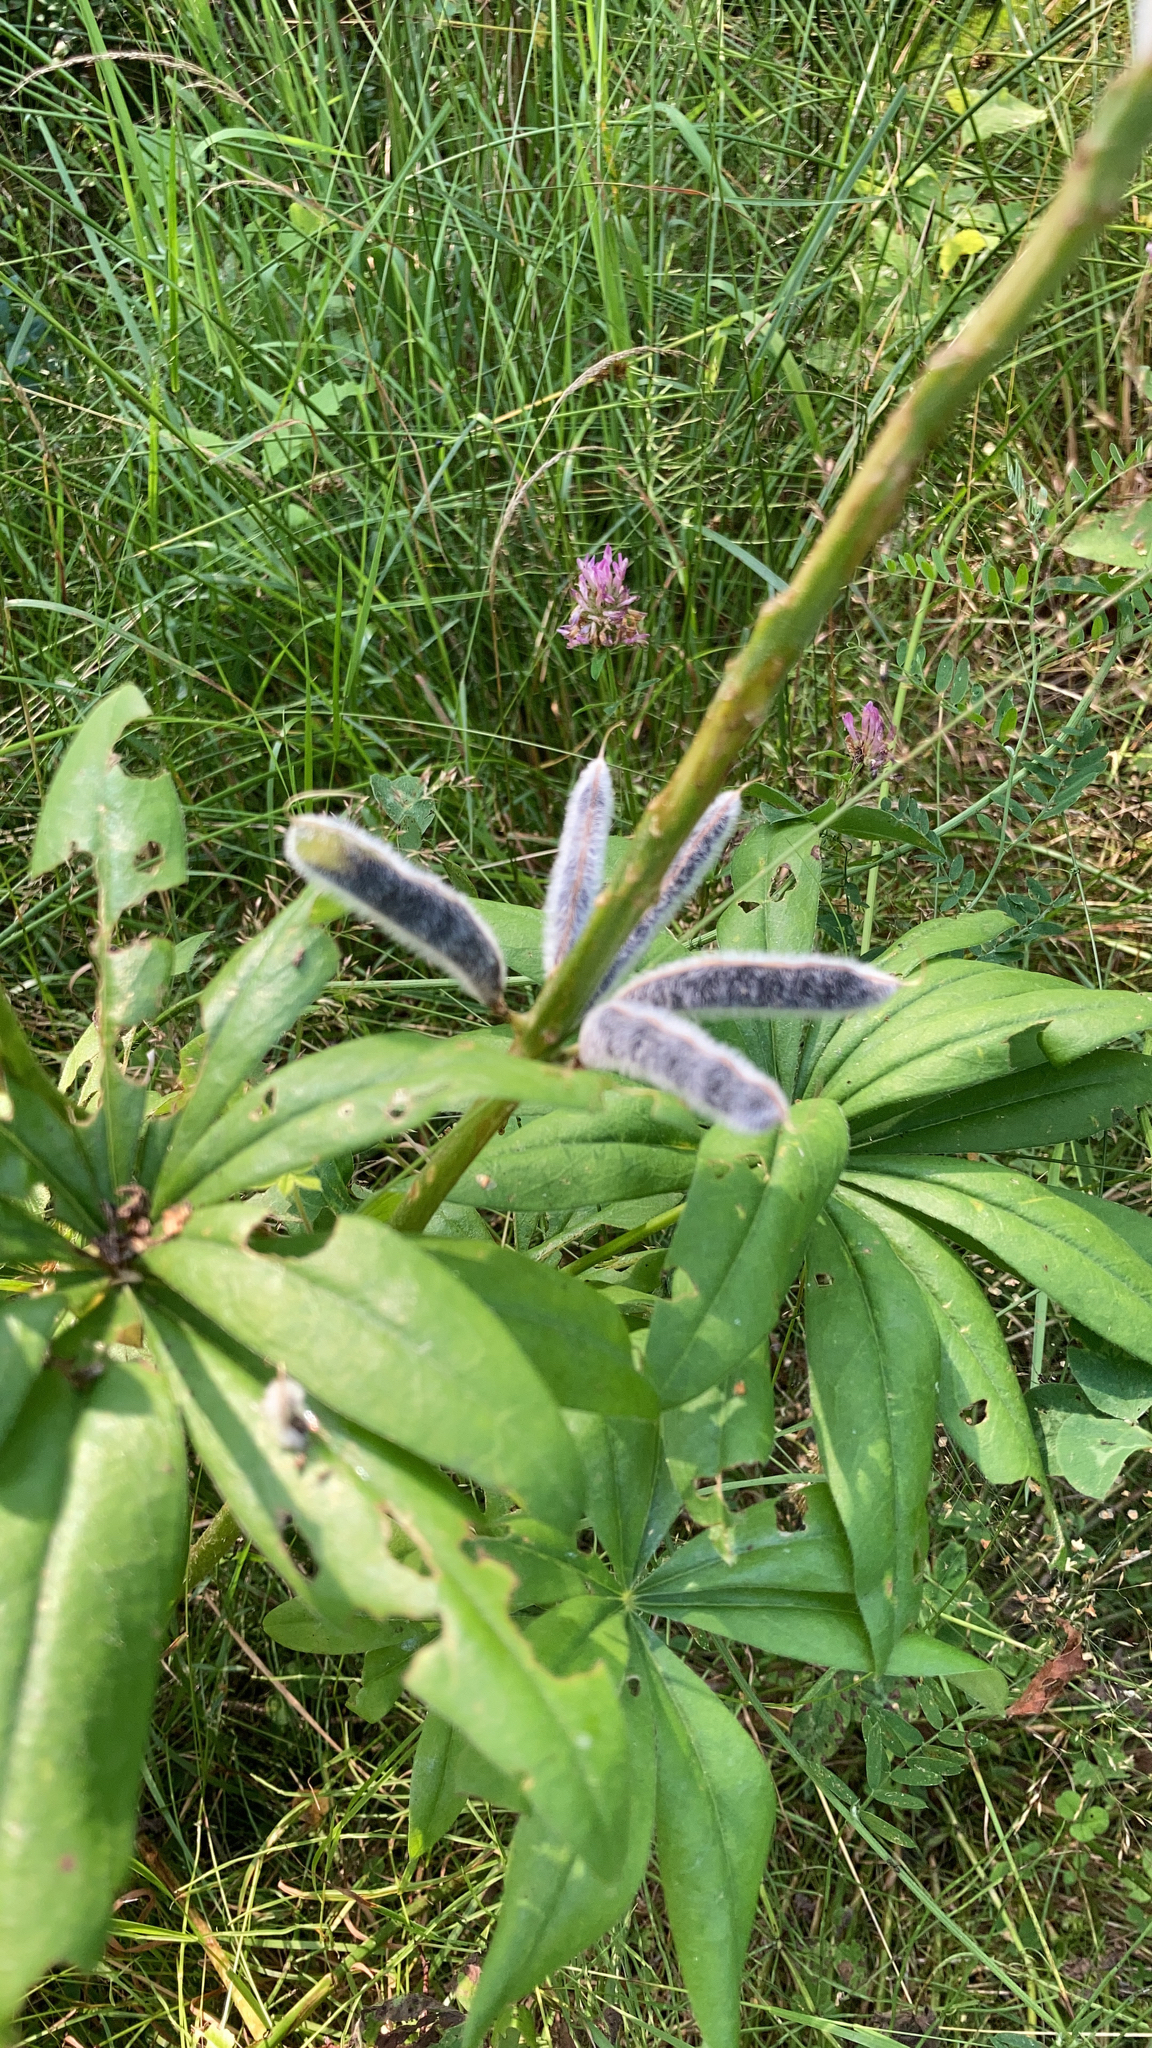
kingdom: Plantae
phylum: Tracheophyta
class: Magnoliopsida
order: Fabales
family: Fabaceae
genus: Lupinus
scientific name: Lupinus polyphyllus
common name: Garden lupin
